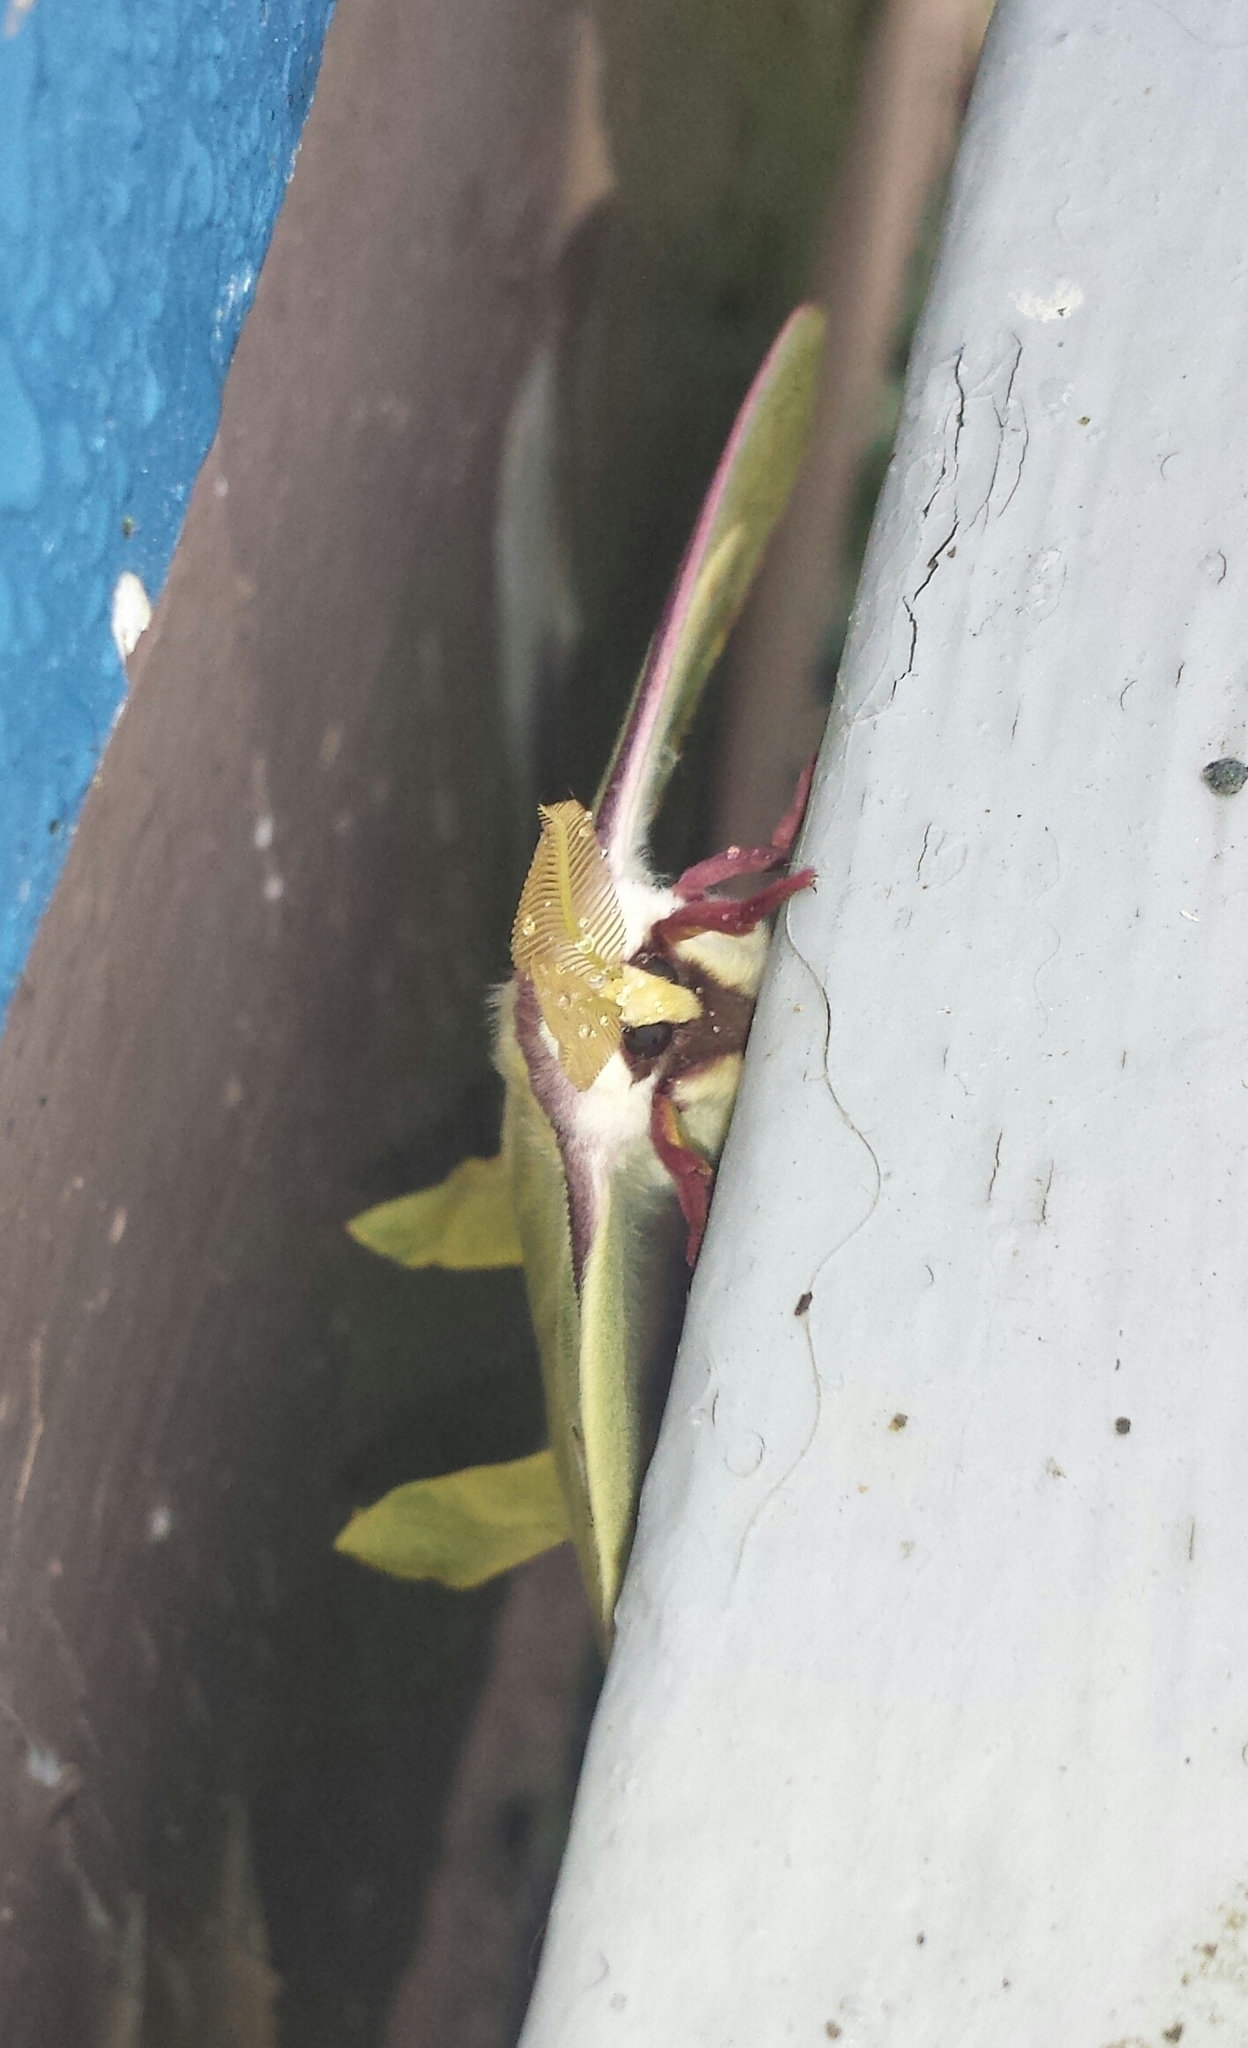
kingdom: Animalia
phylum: Arthropoda
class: Insecta
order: Lepidoptera
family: Saturniidae
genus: Actias
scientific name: Actias luna
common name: Luna moth
